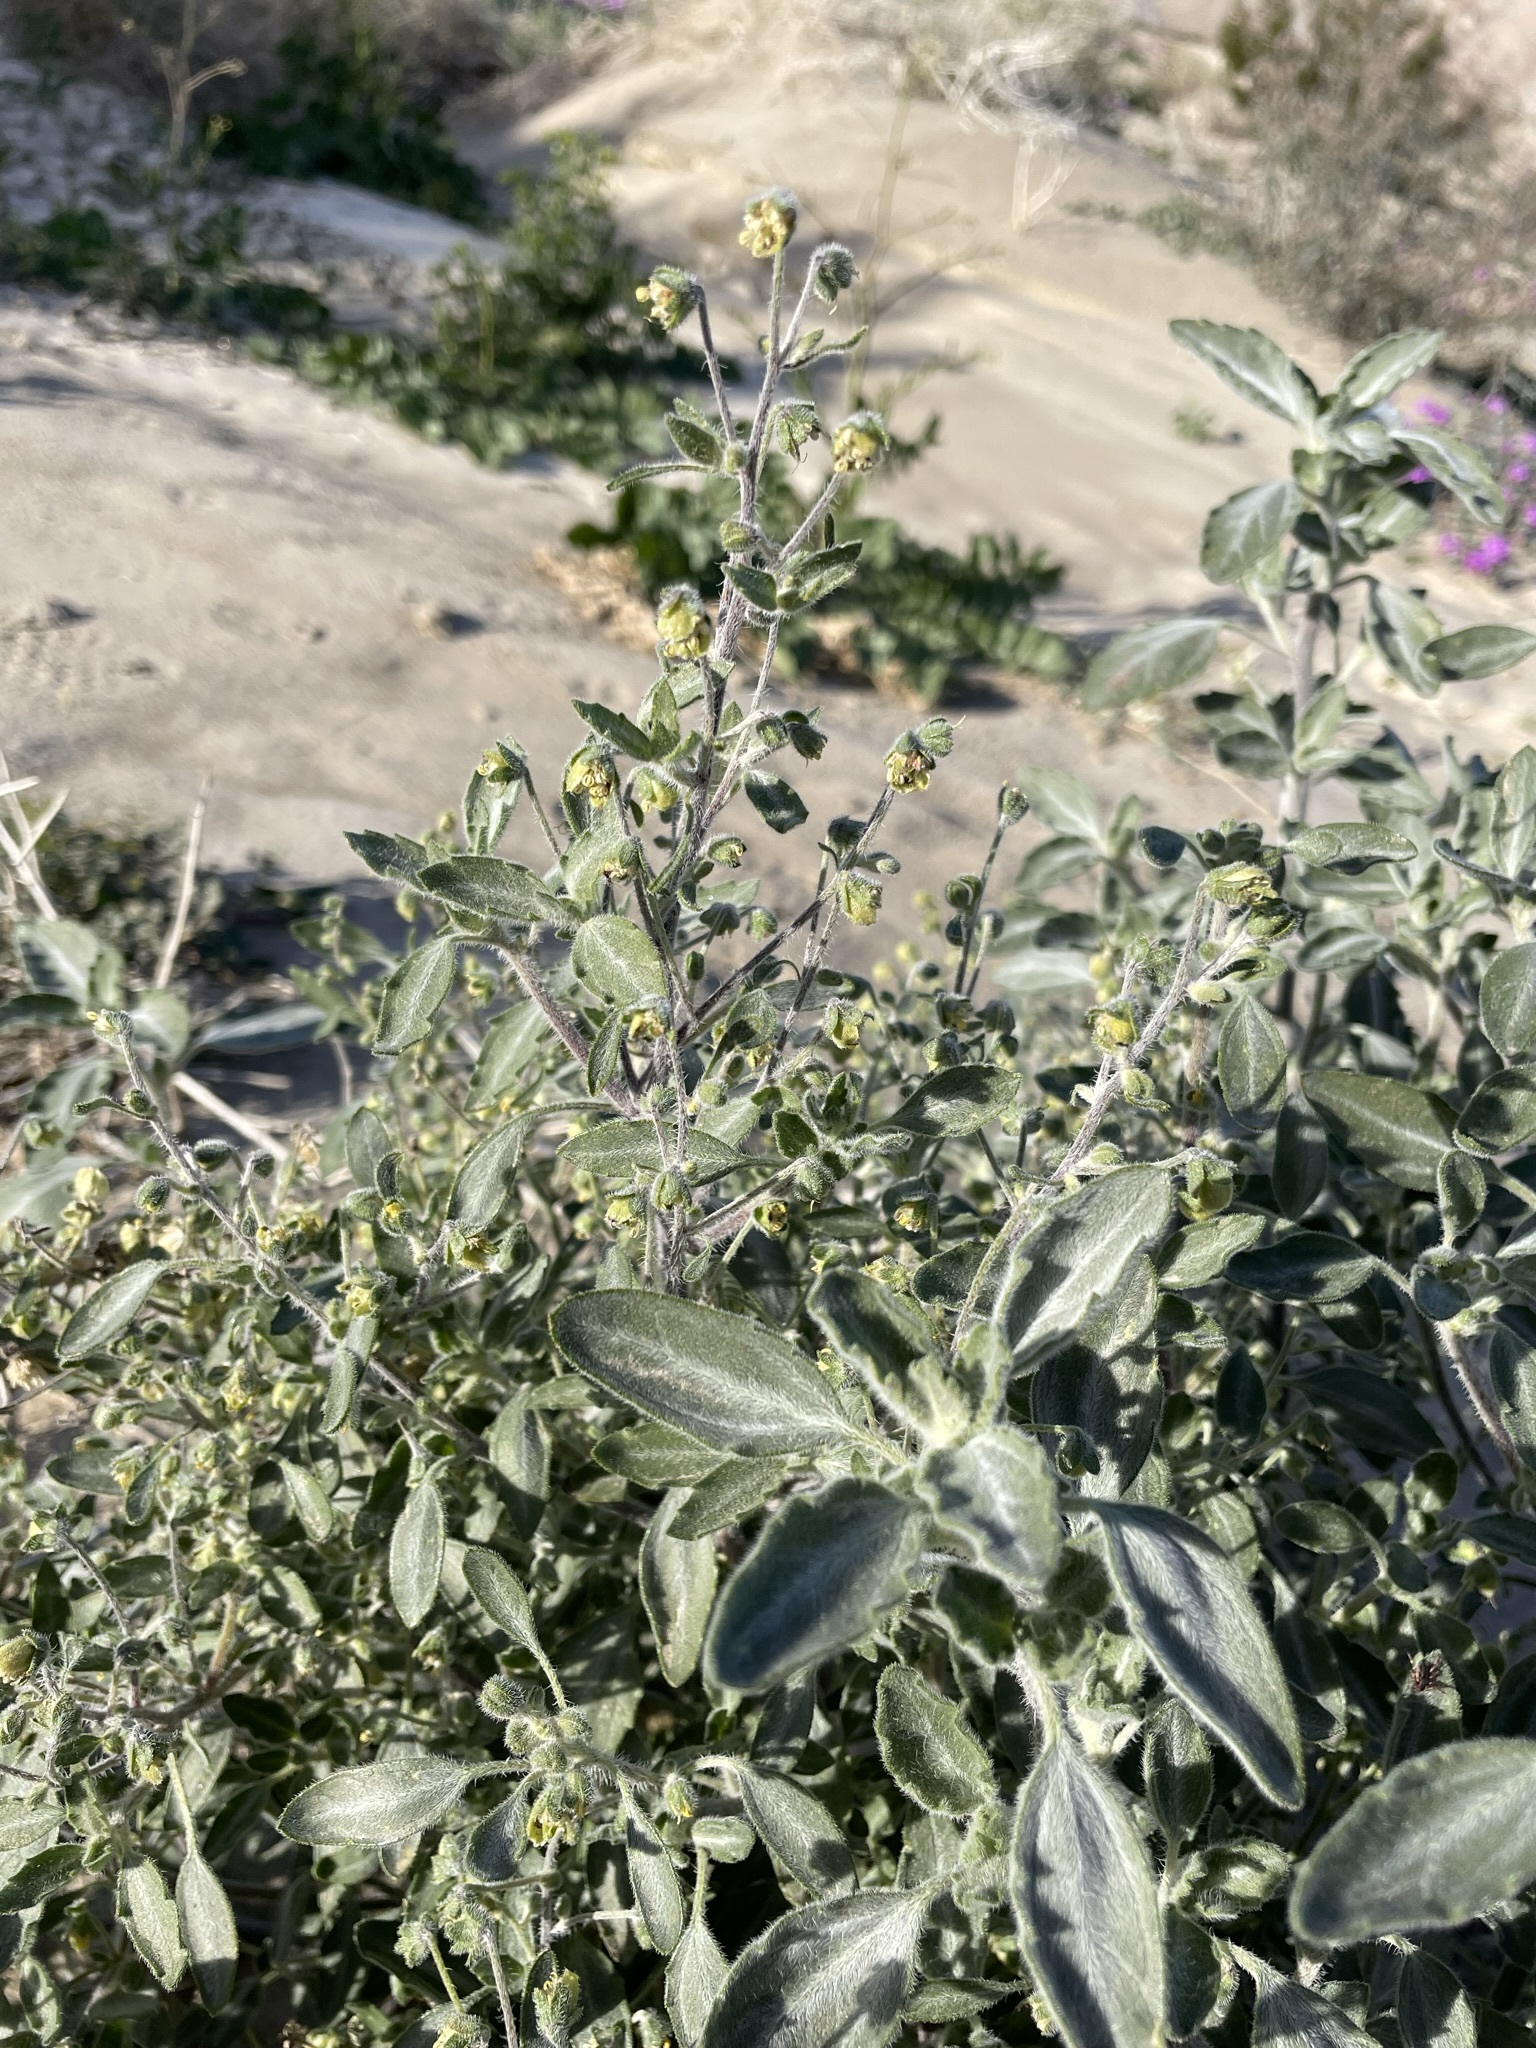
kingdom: Plantae
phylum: Tracheophyta
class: Magnoliopsida
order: Asterales
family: Asteraceae
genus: Dicoria
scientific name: Dicoria canescens
